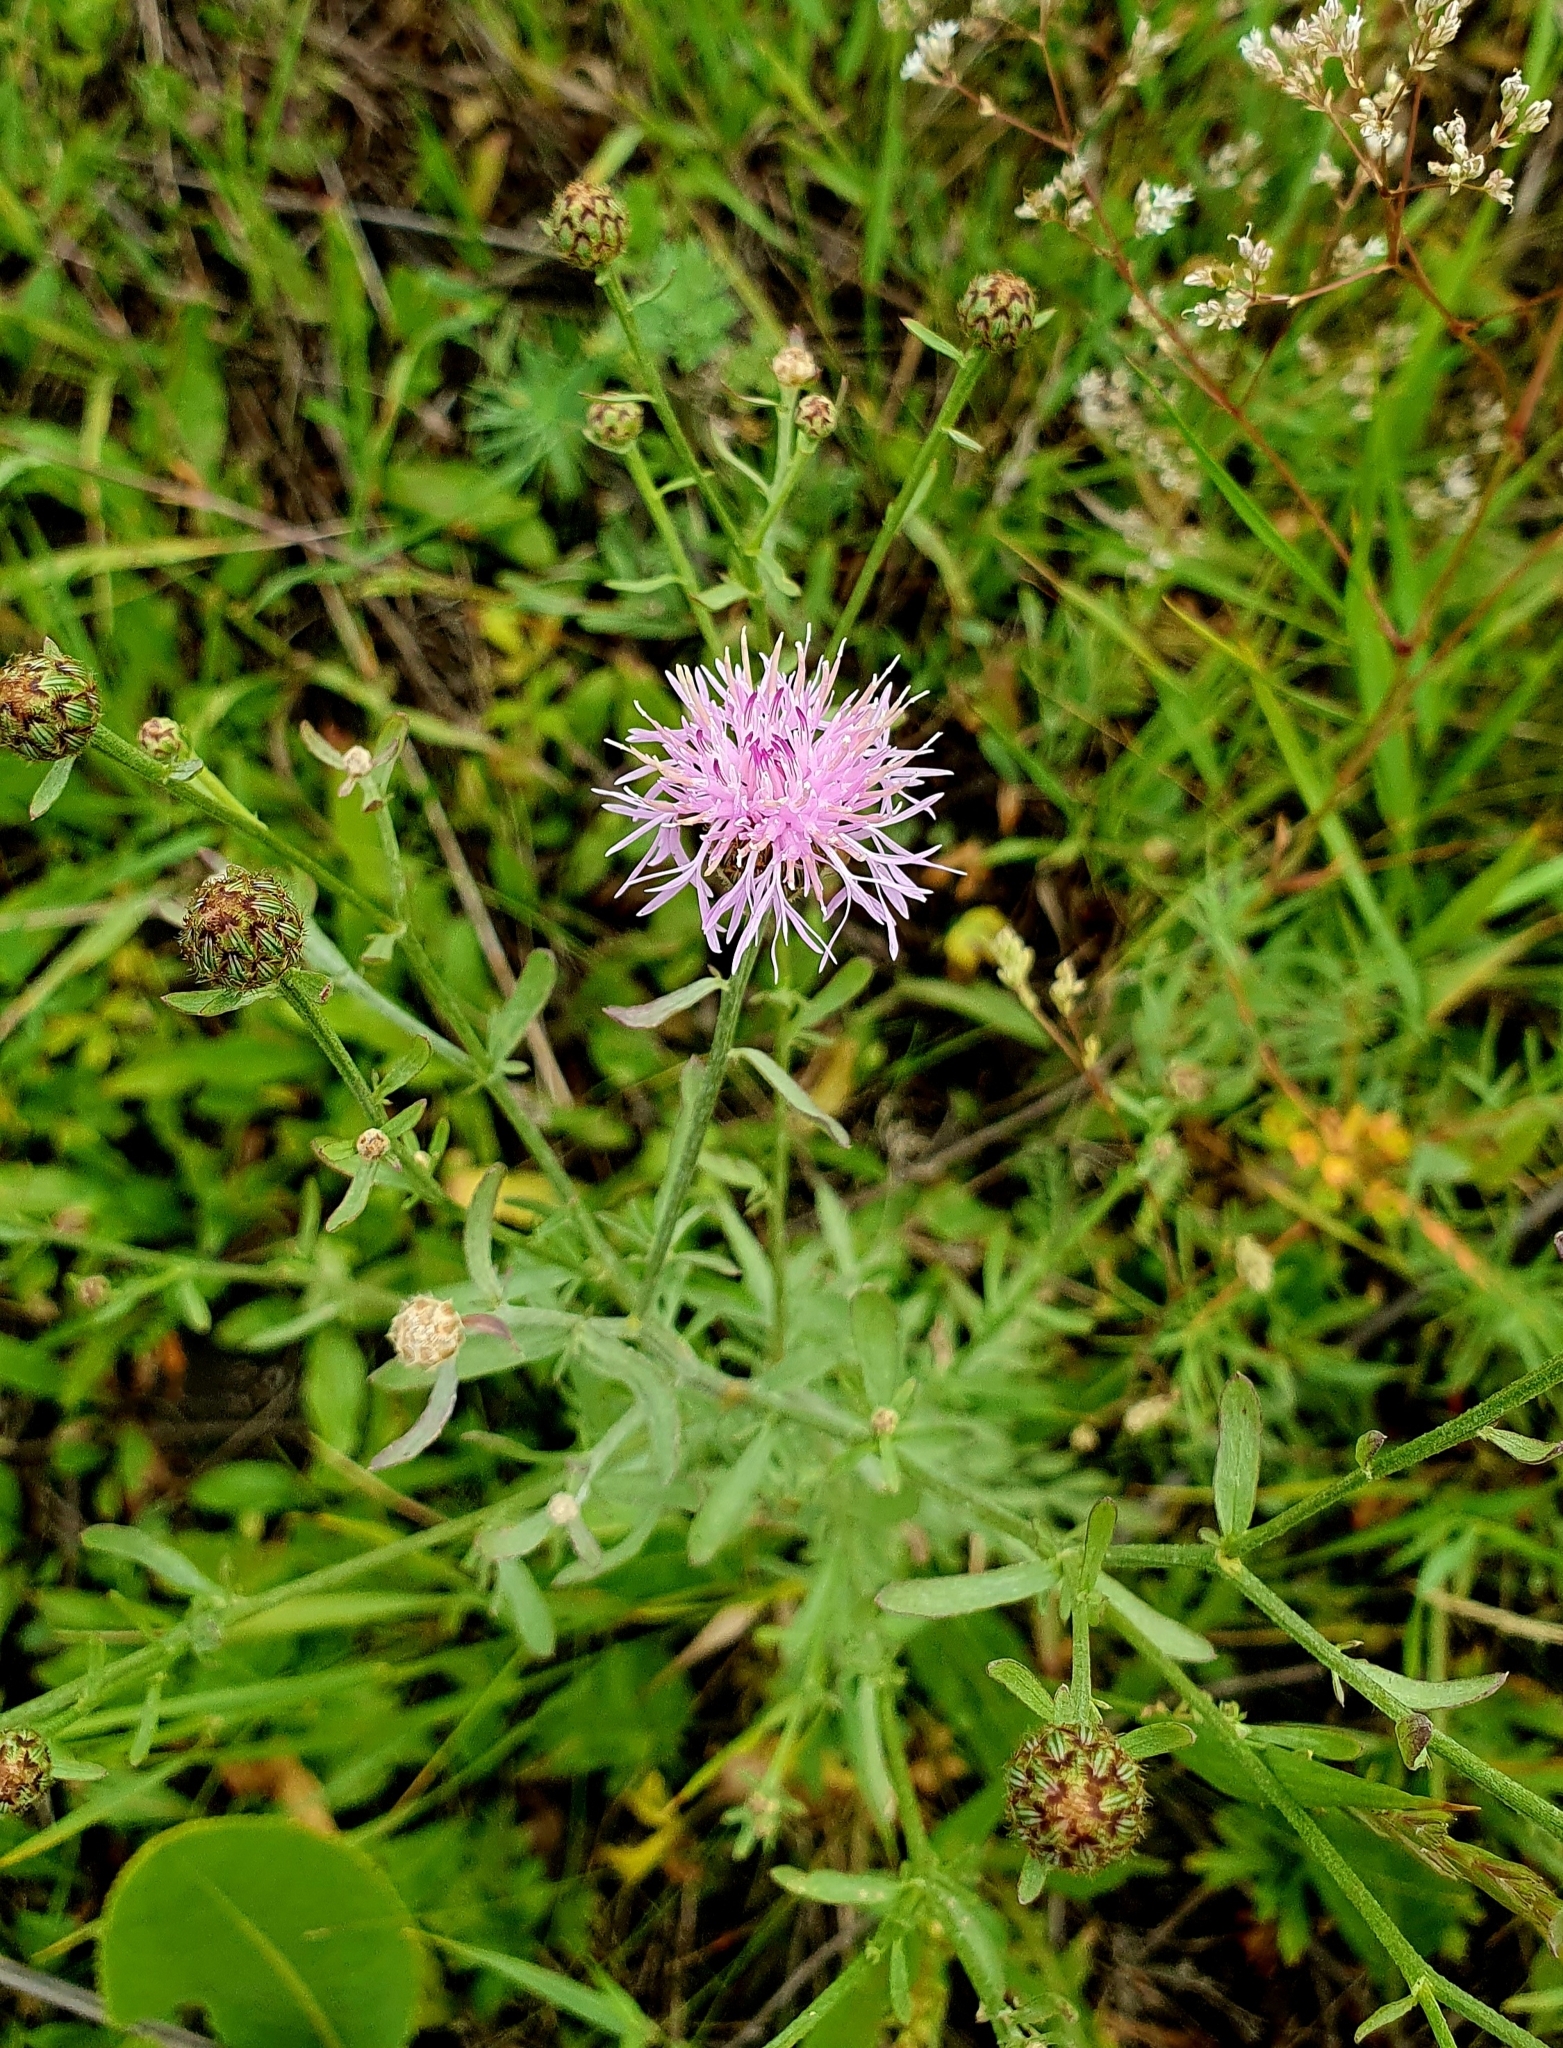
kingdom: Plantae
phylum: Tracheophyta
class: Magnoliopsida
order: Asterales
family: Asteraceae
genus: Centaurea
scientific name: Centaurea stoebe
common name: Spotted knapweed
